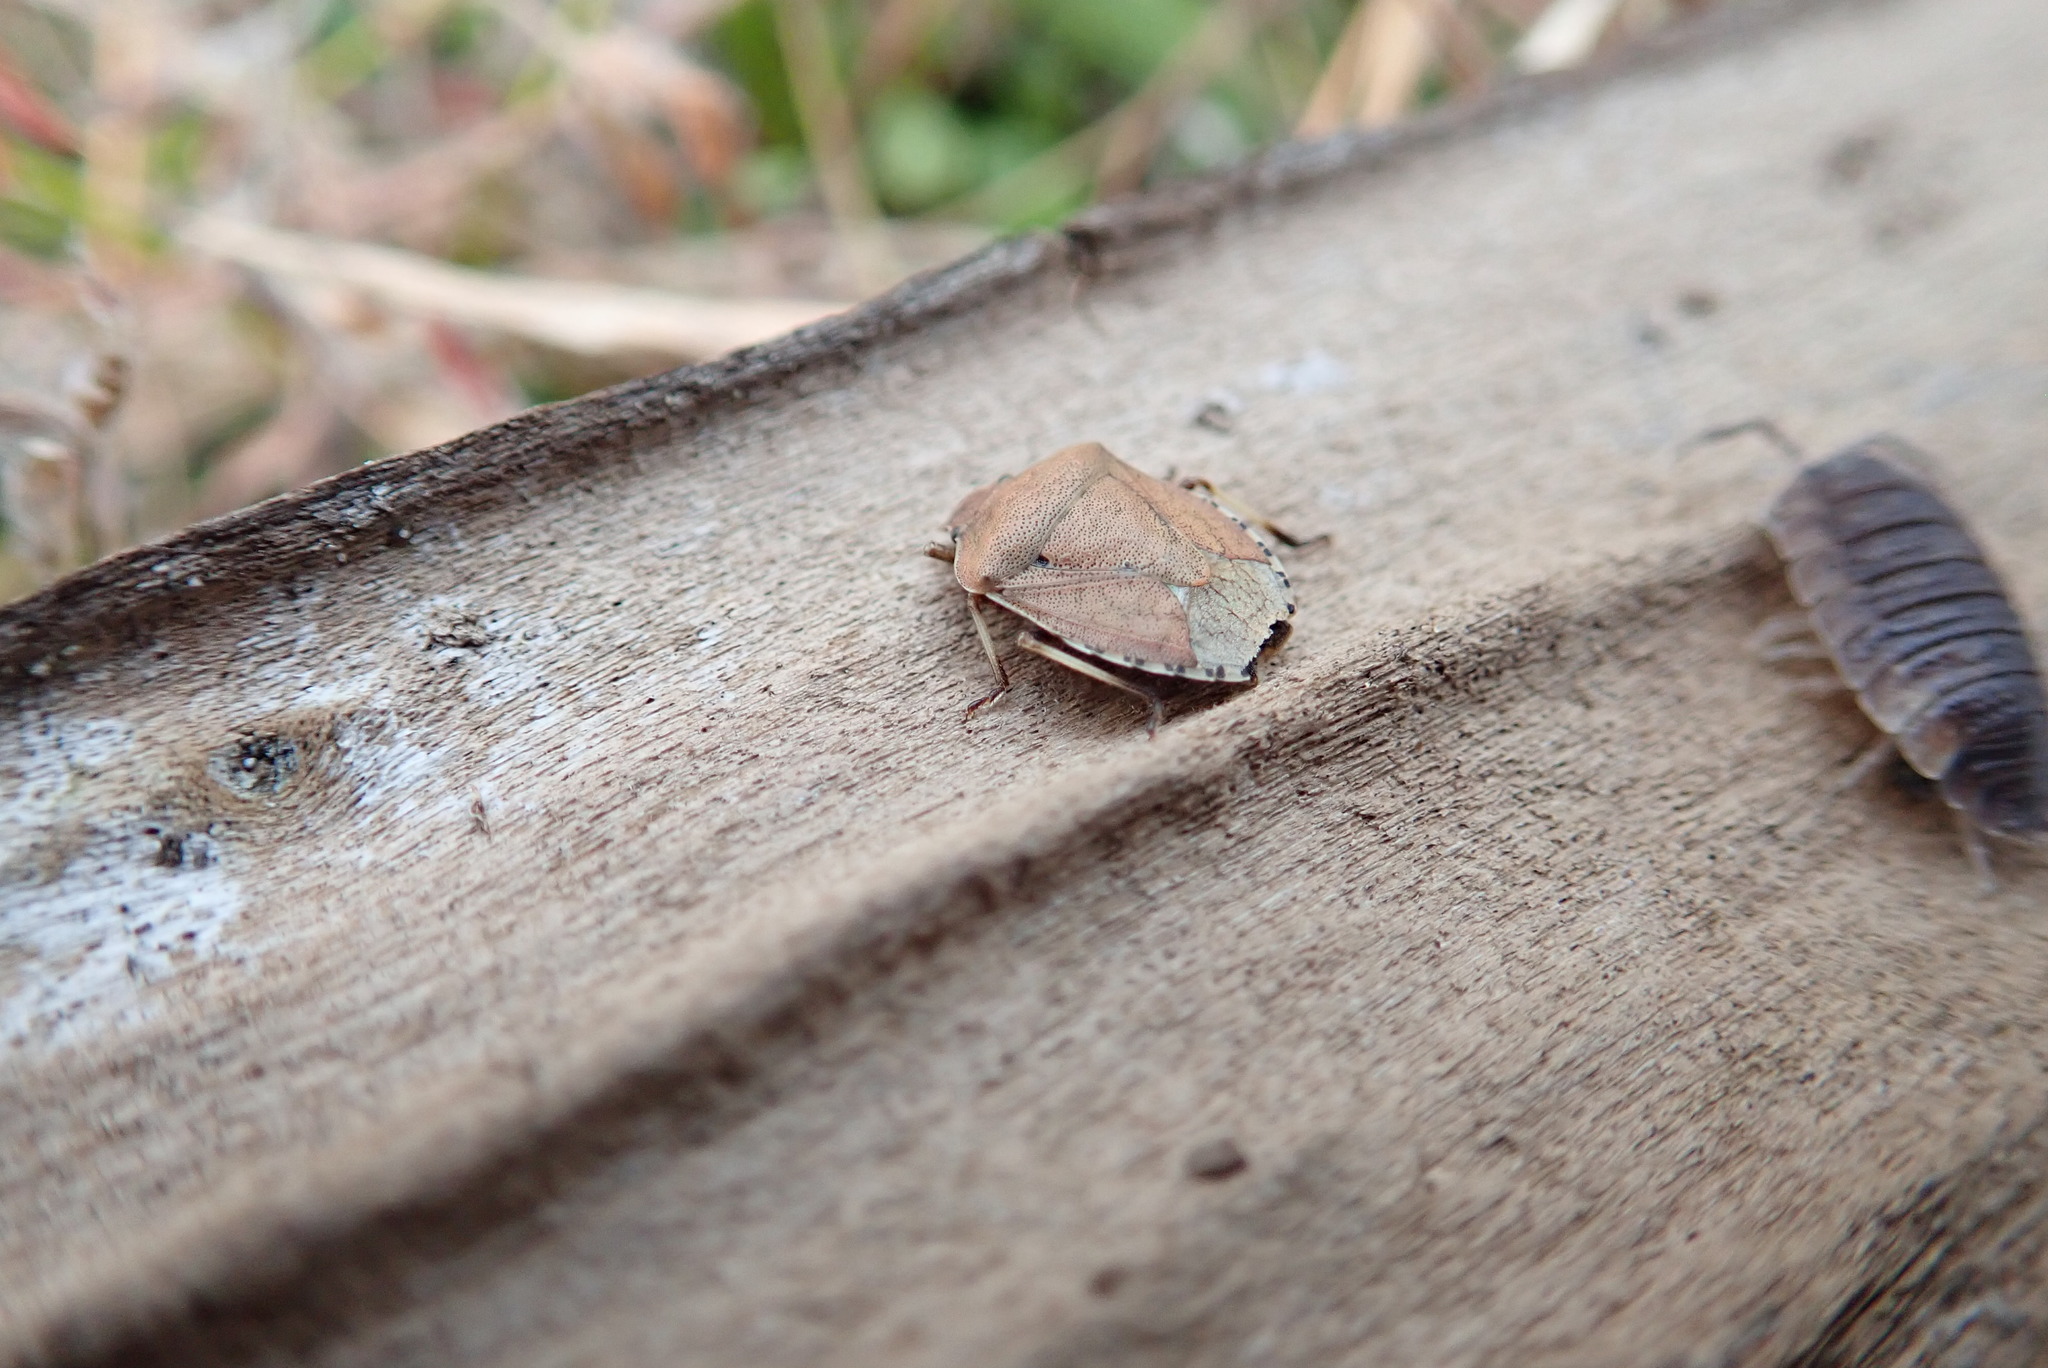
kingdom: Animalia
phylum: Arthropoda
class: Insecta
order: Hemiptera
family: Pentatomidae
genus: Dictyotus
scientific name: Dictyotus caenosus
